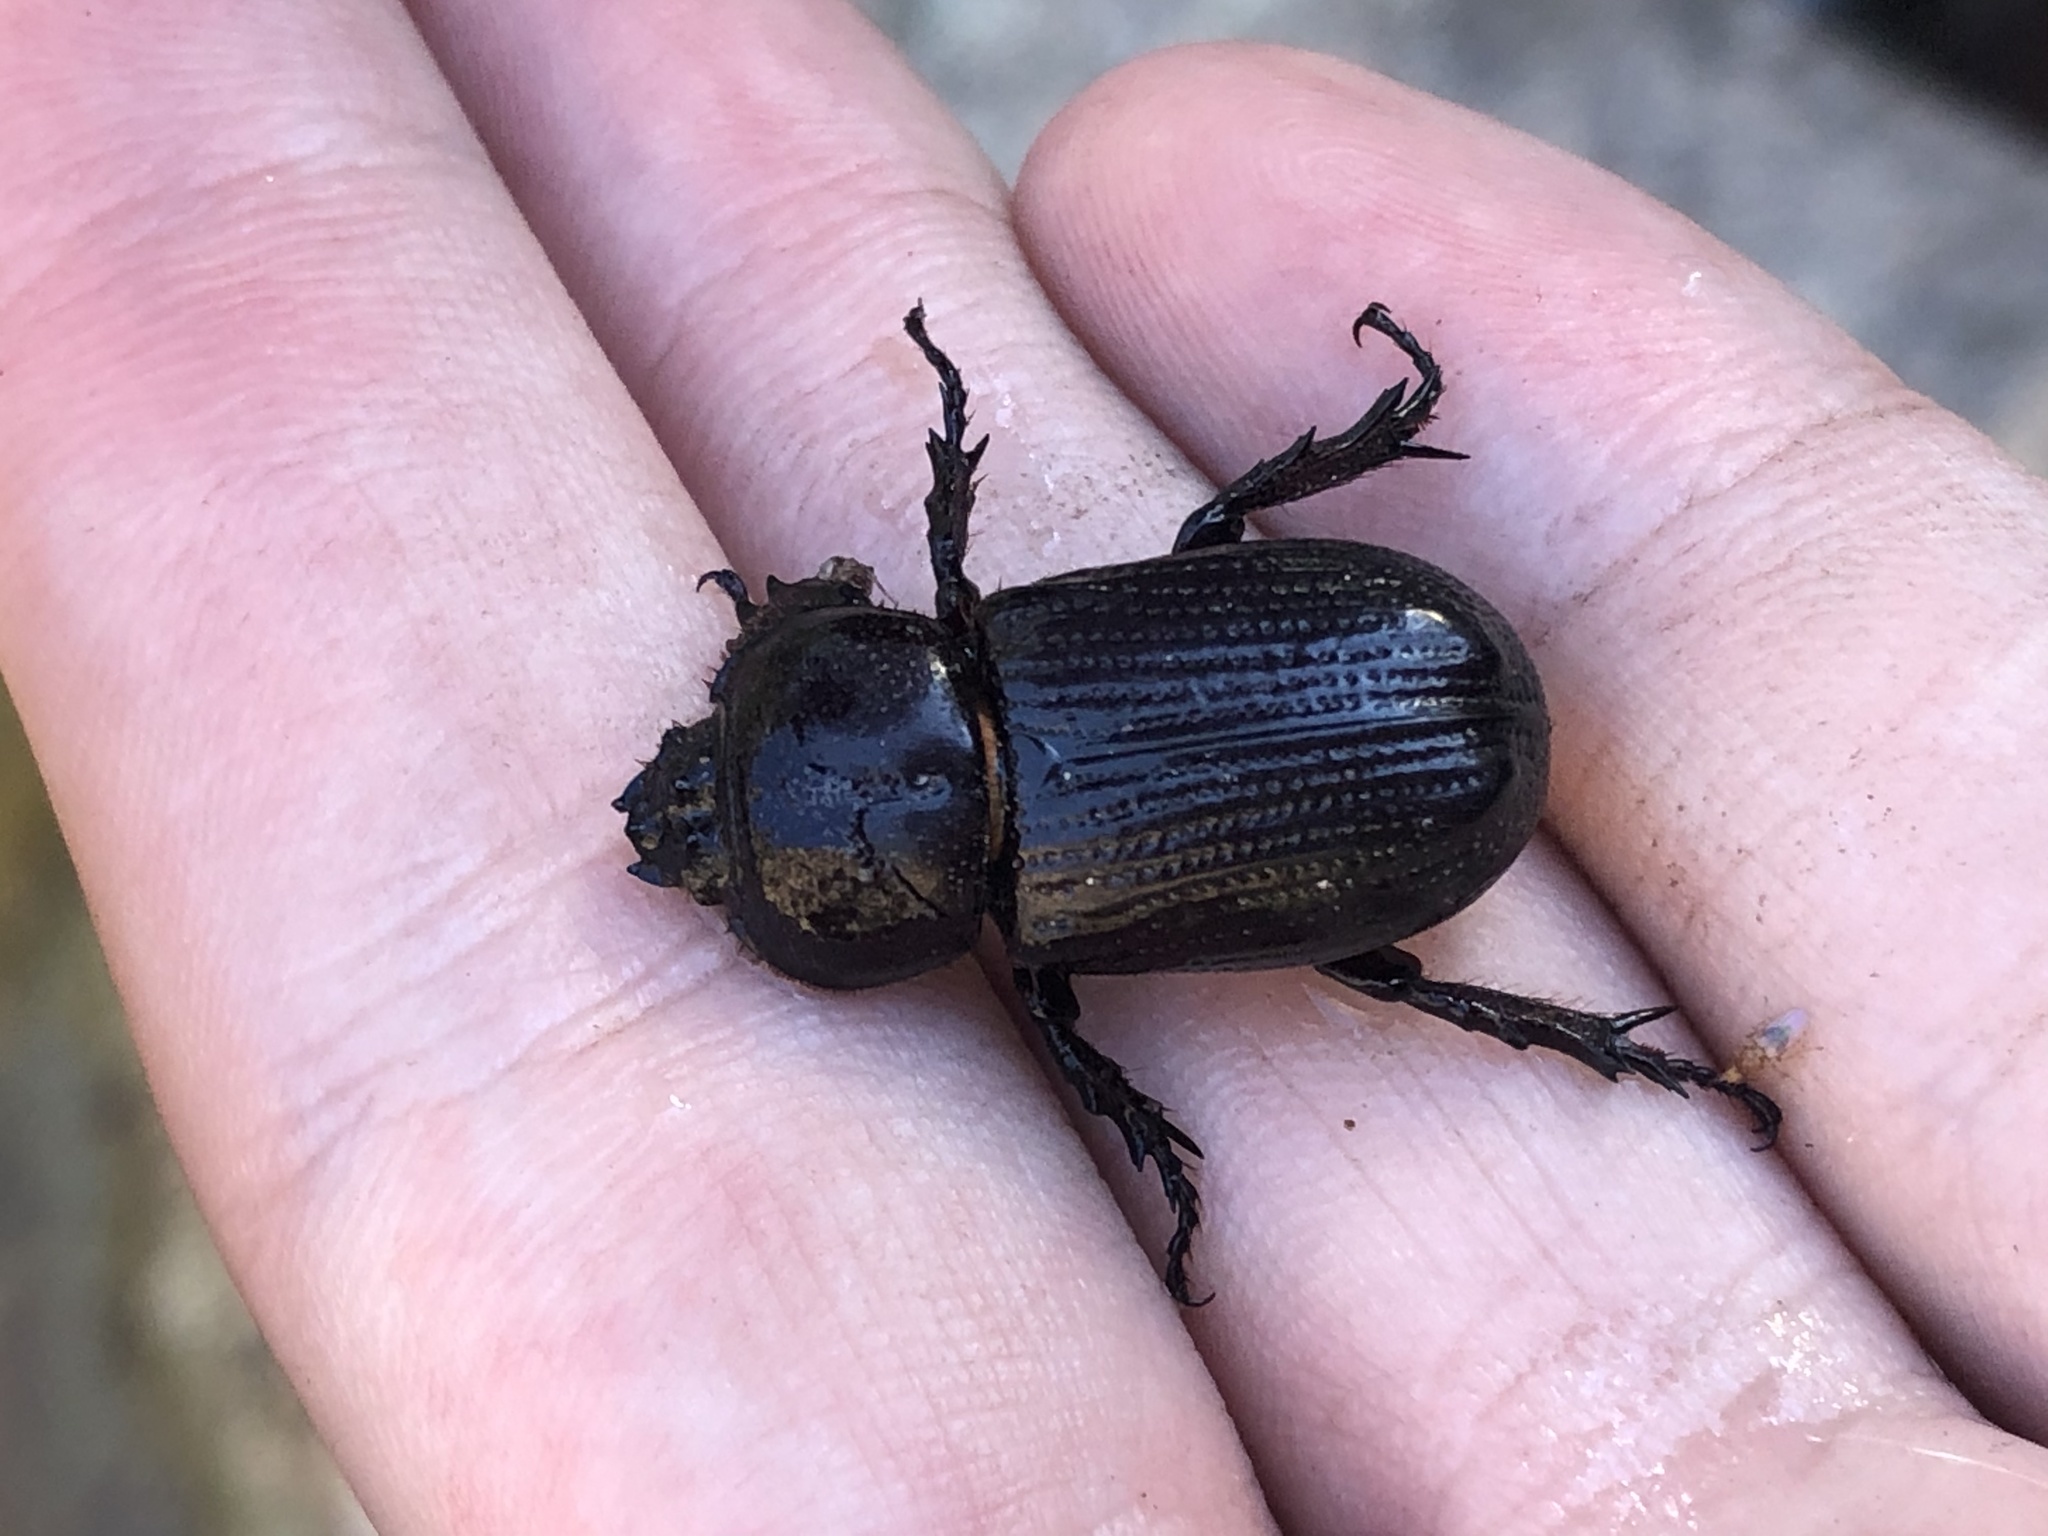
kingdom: Animalia
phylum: Arthropoda
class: Insecta
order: Coleoptera
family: Scarabaeidae
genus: Hemiphileurus
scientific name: Hemiphileurus illatus
